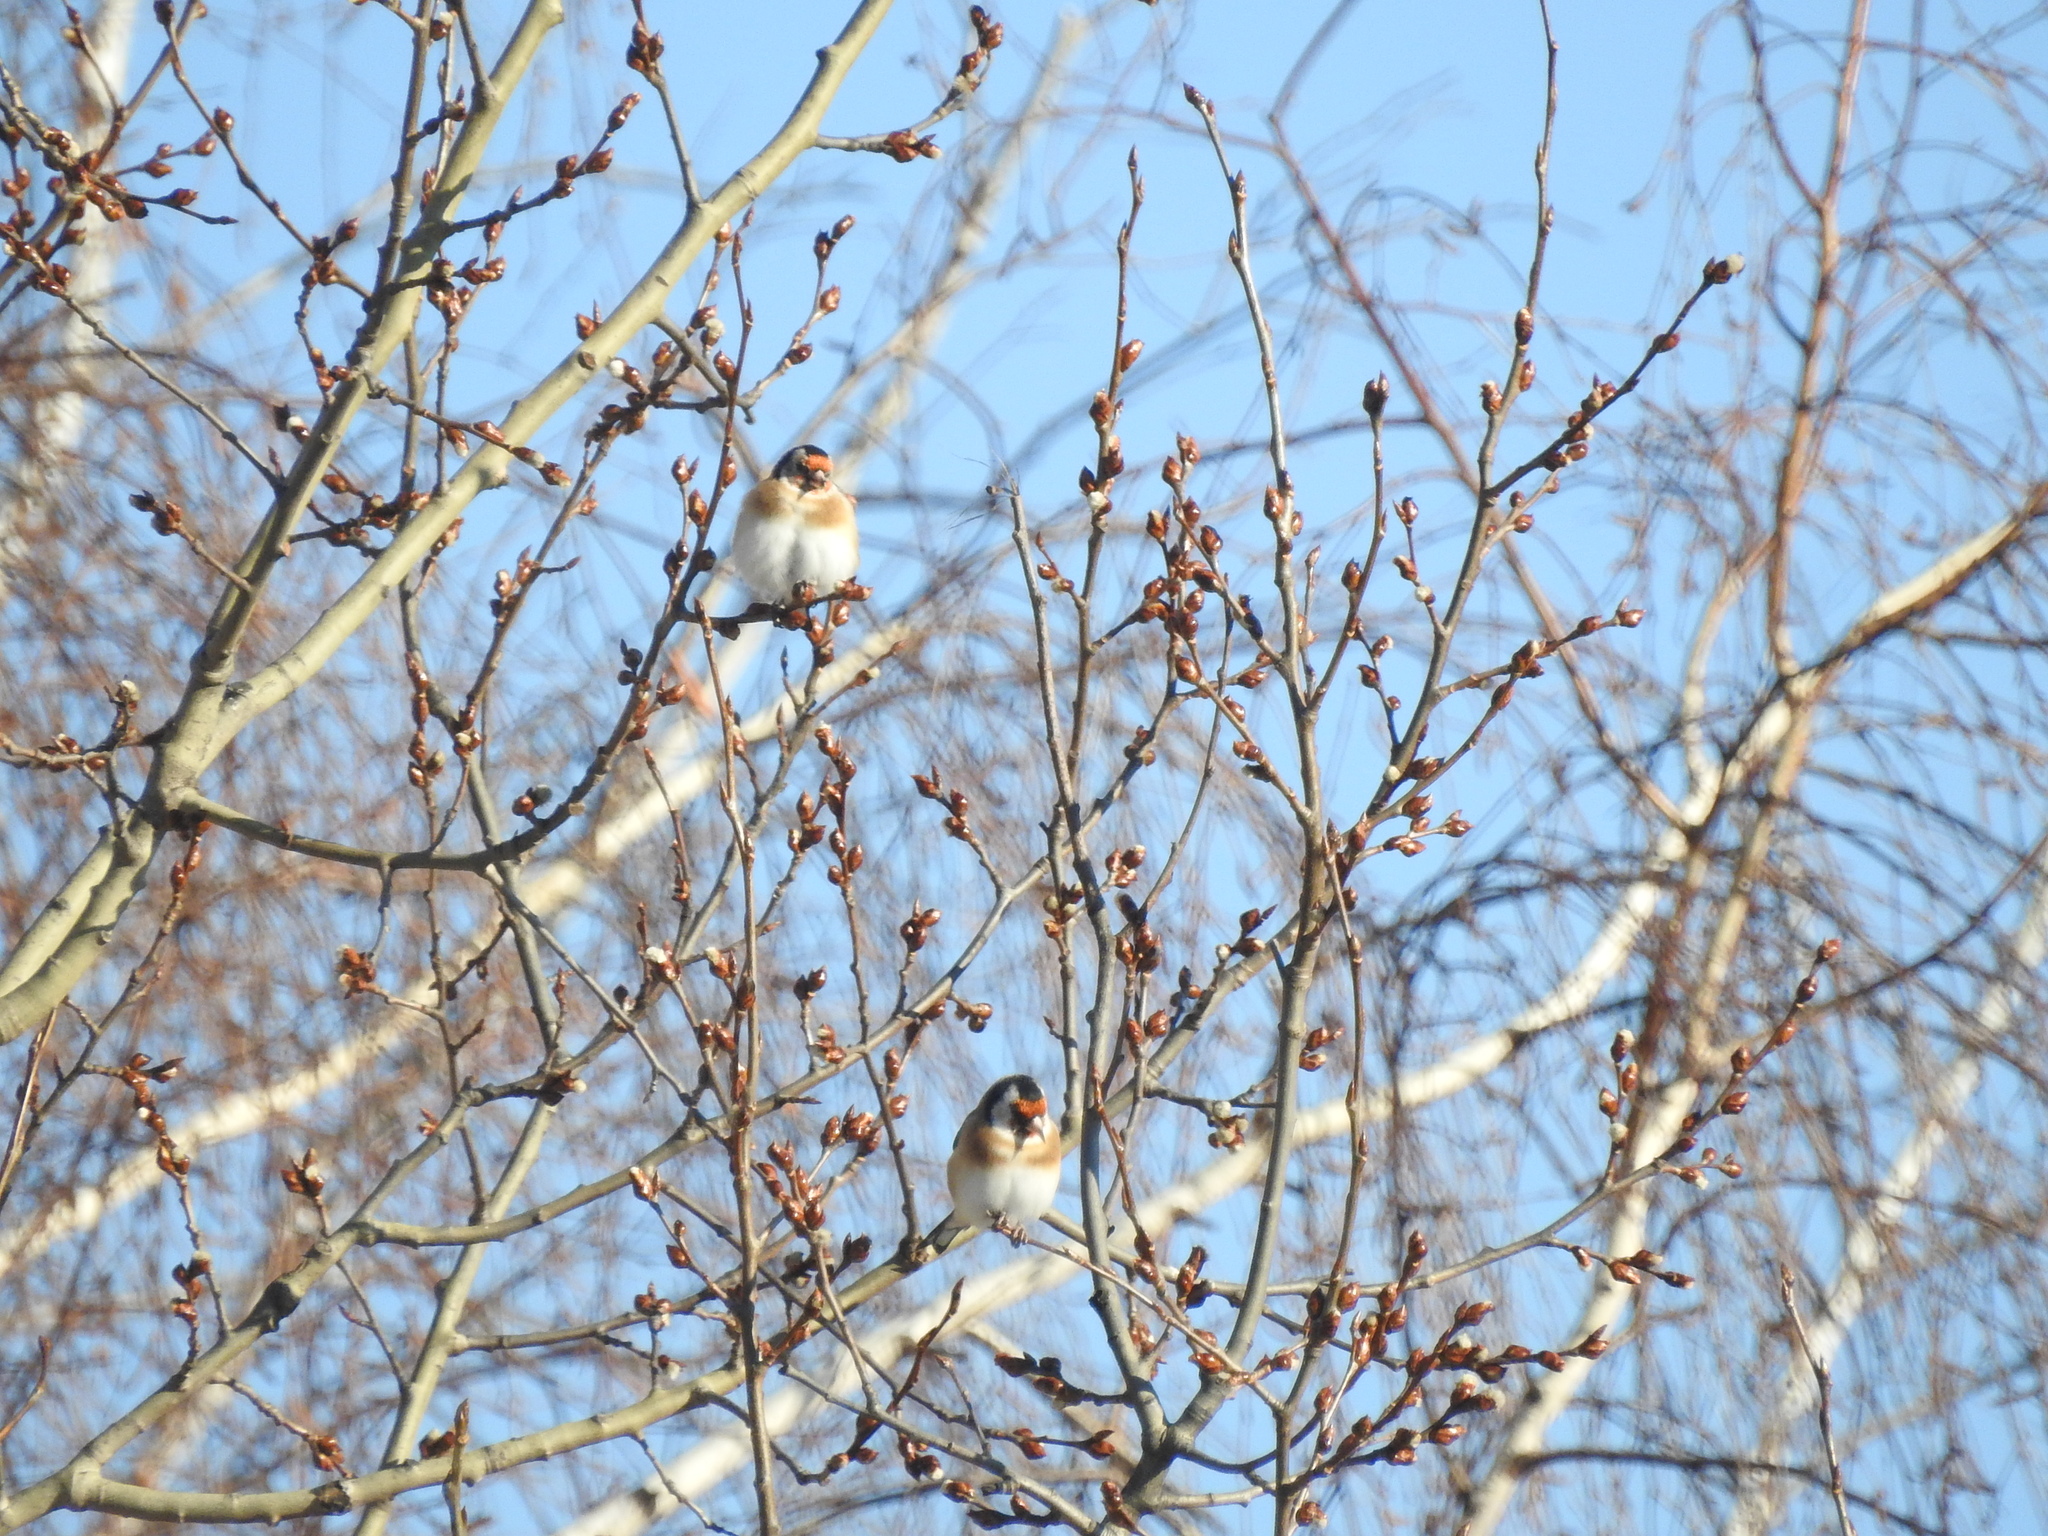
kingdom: Animalia
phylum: Chordata
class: Aves
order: Passeriformes
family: Fringillidae
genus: Carduelis
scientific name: Carduelis carduelis
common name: European goldfinch
